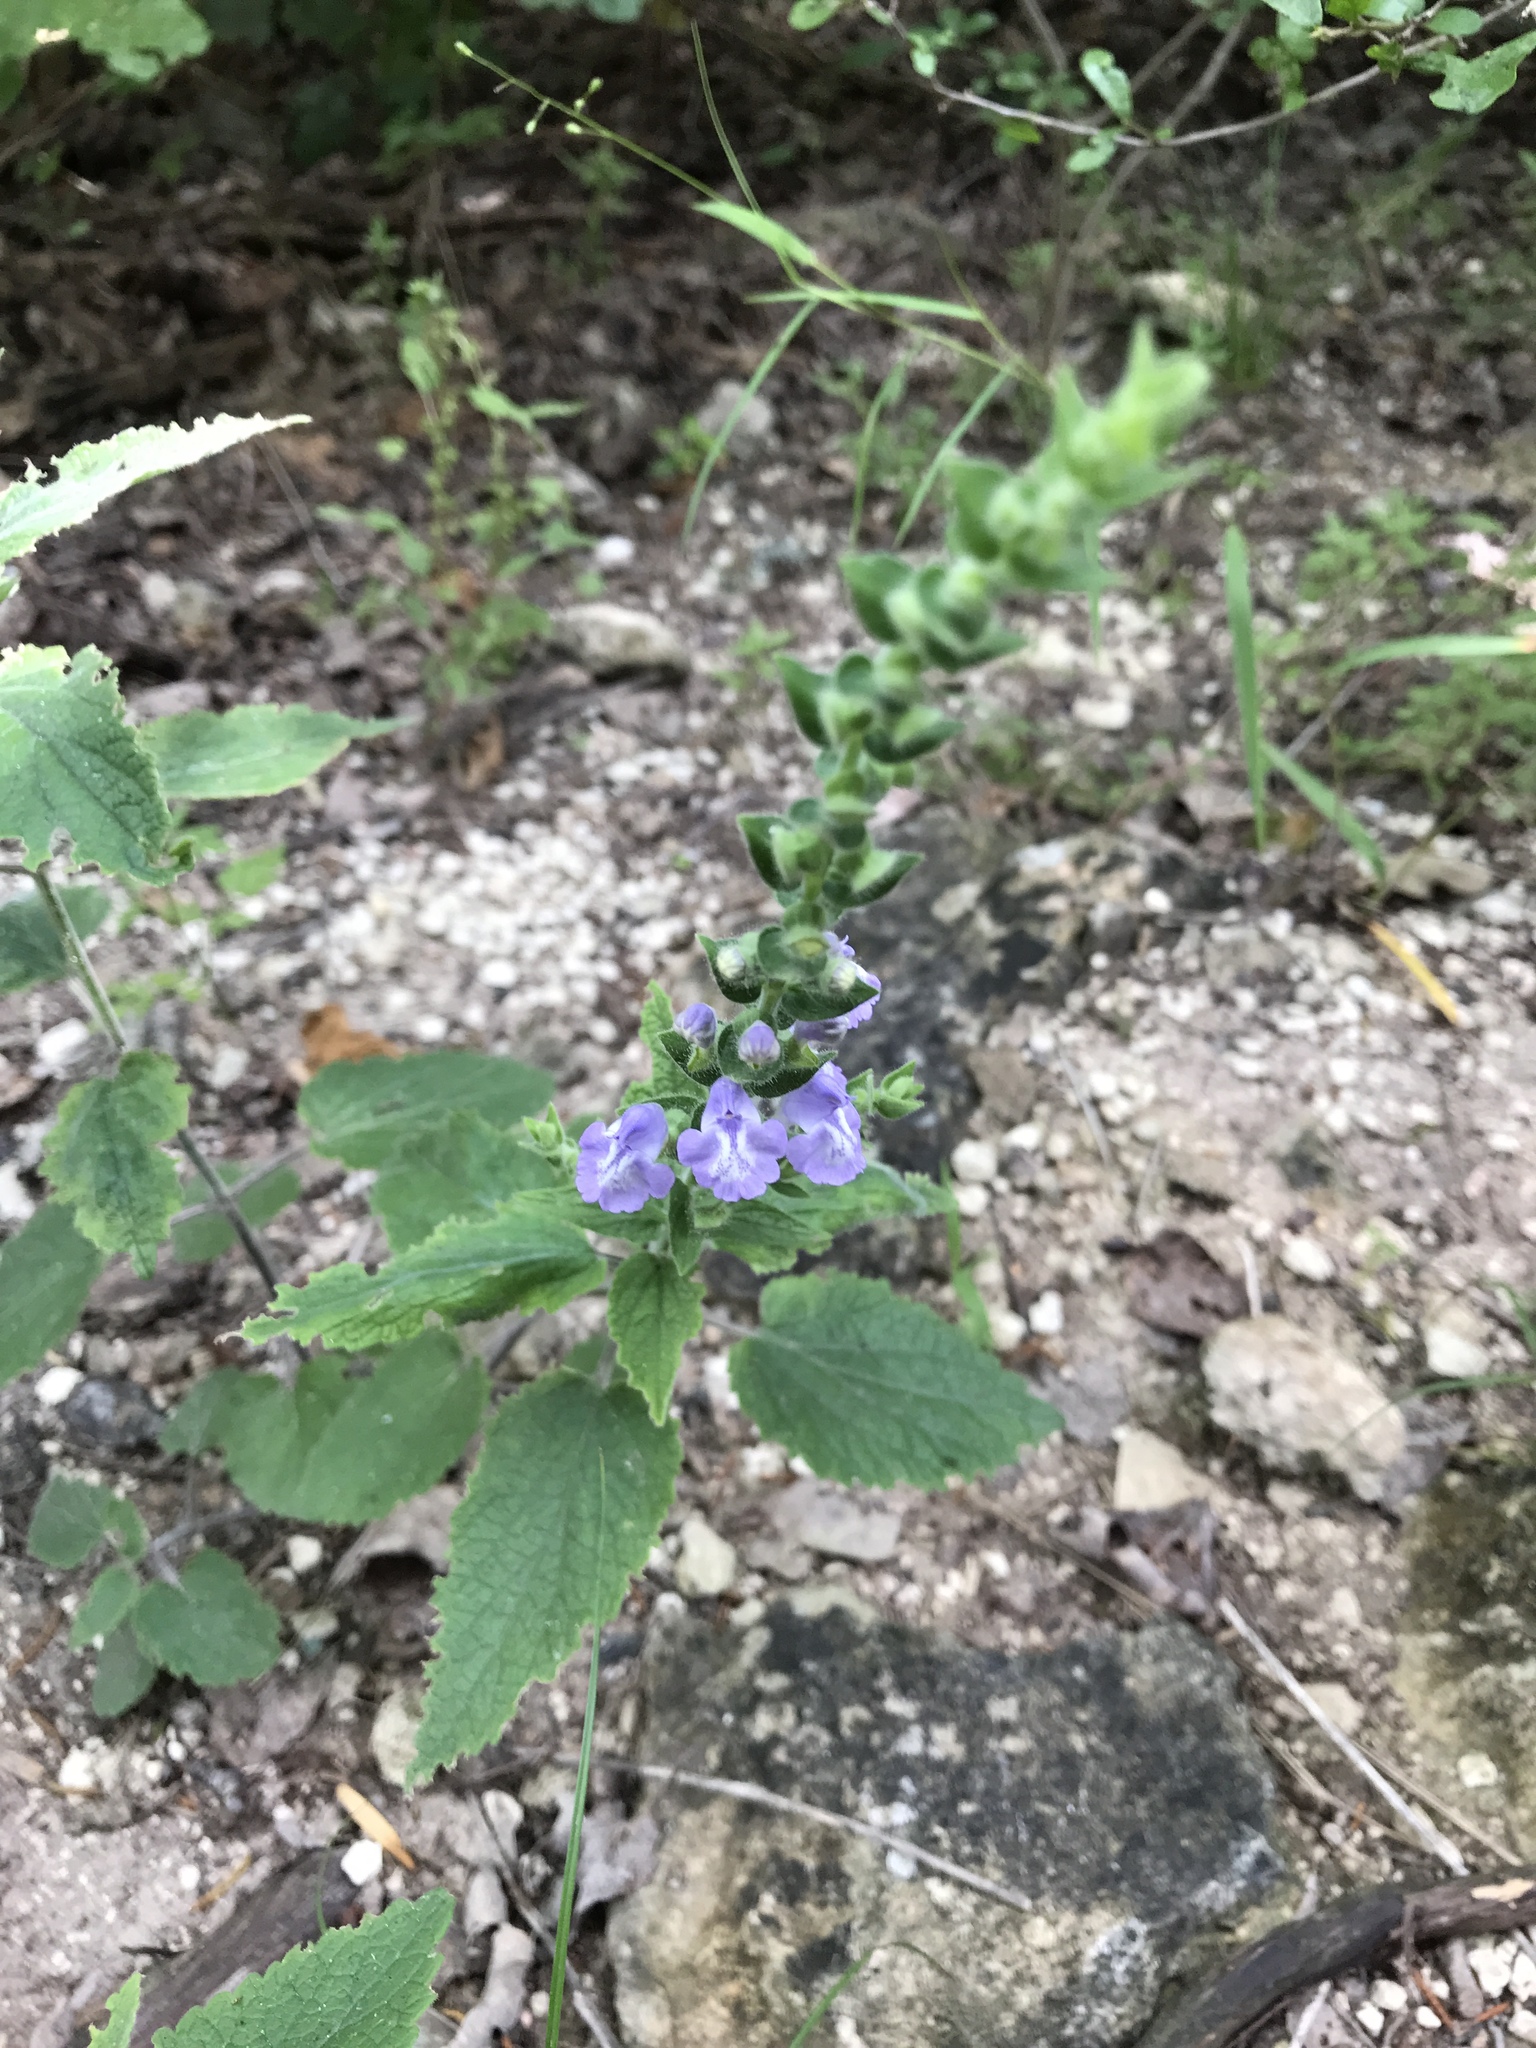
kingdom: Plantae
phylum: Tracheophyta
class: Magnoliopsida
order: Lamiales
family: Lamiaceae
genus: Scutellaria
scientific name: Scutellaria ovata
